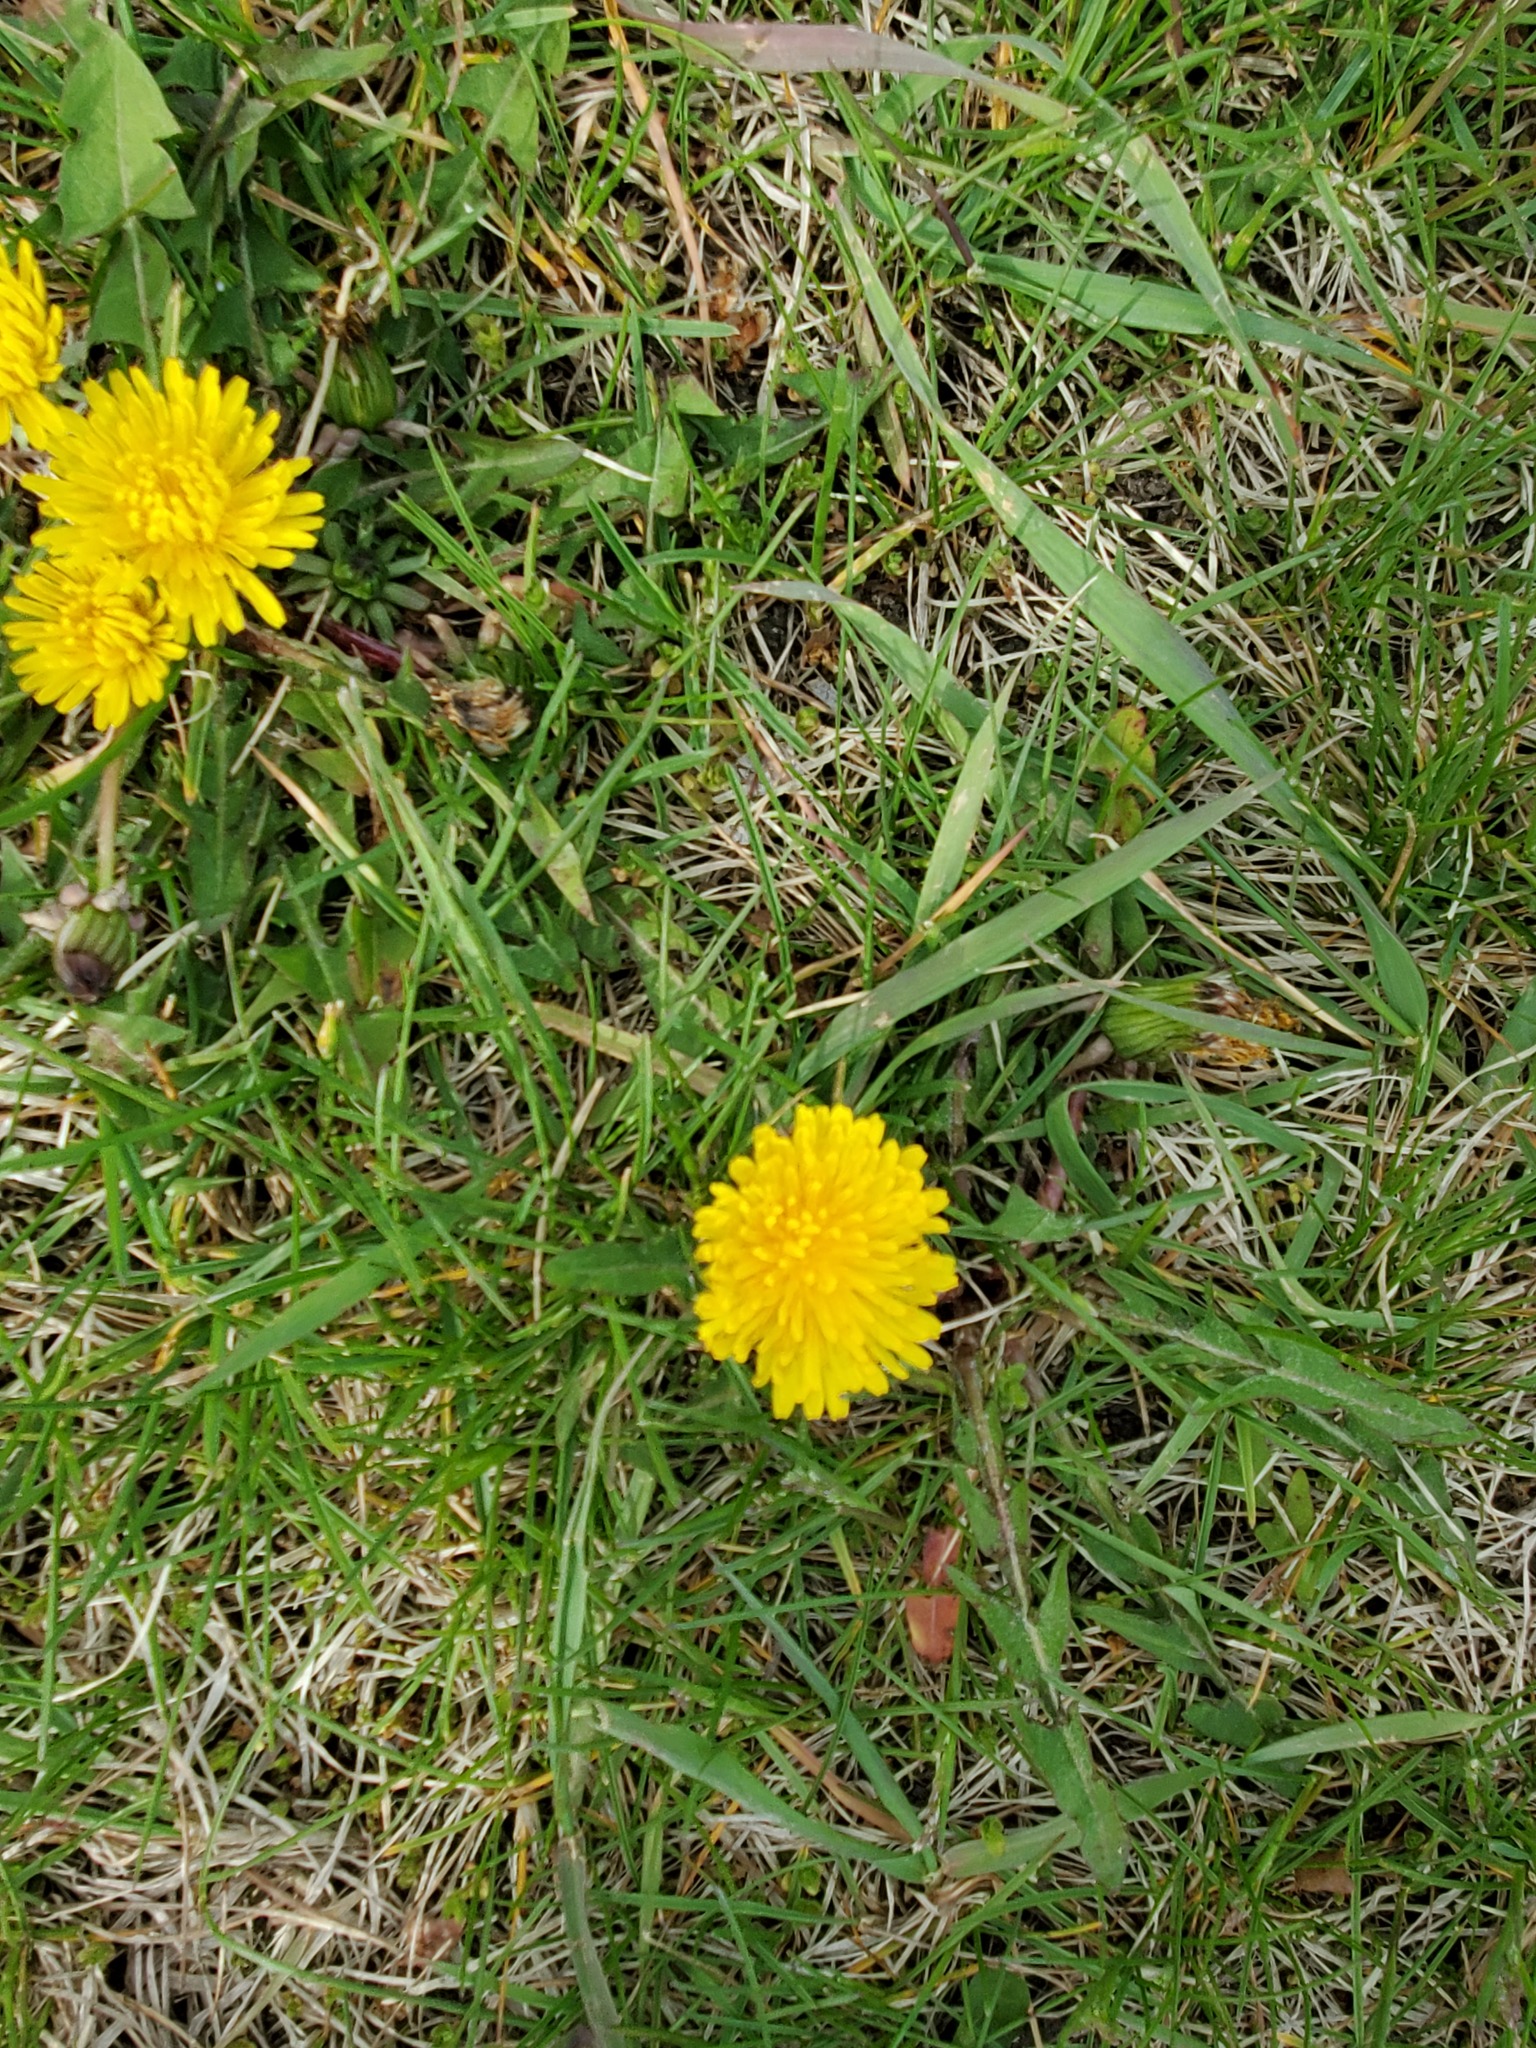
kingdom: Plantae
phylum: Tracheophyta
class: Magnoliopsida
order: Asterales
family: Asteraceae
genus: Taraxacum
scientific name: Taraxacum officinale
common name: Common dandelion
